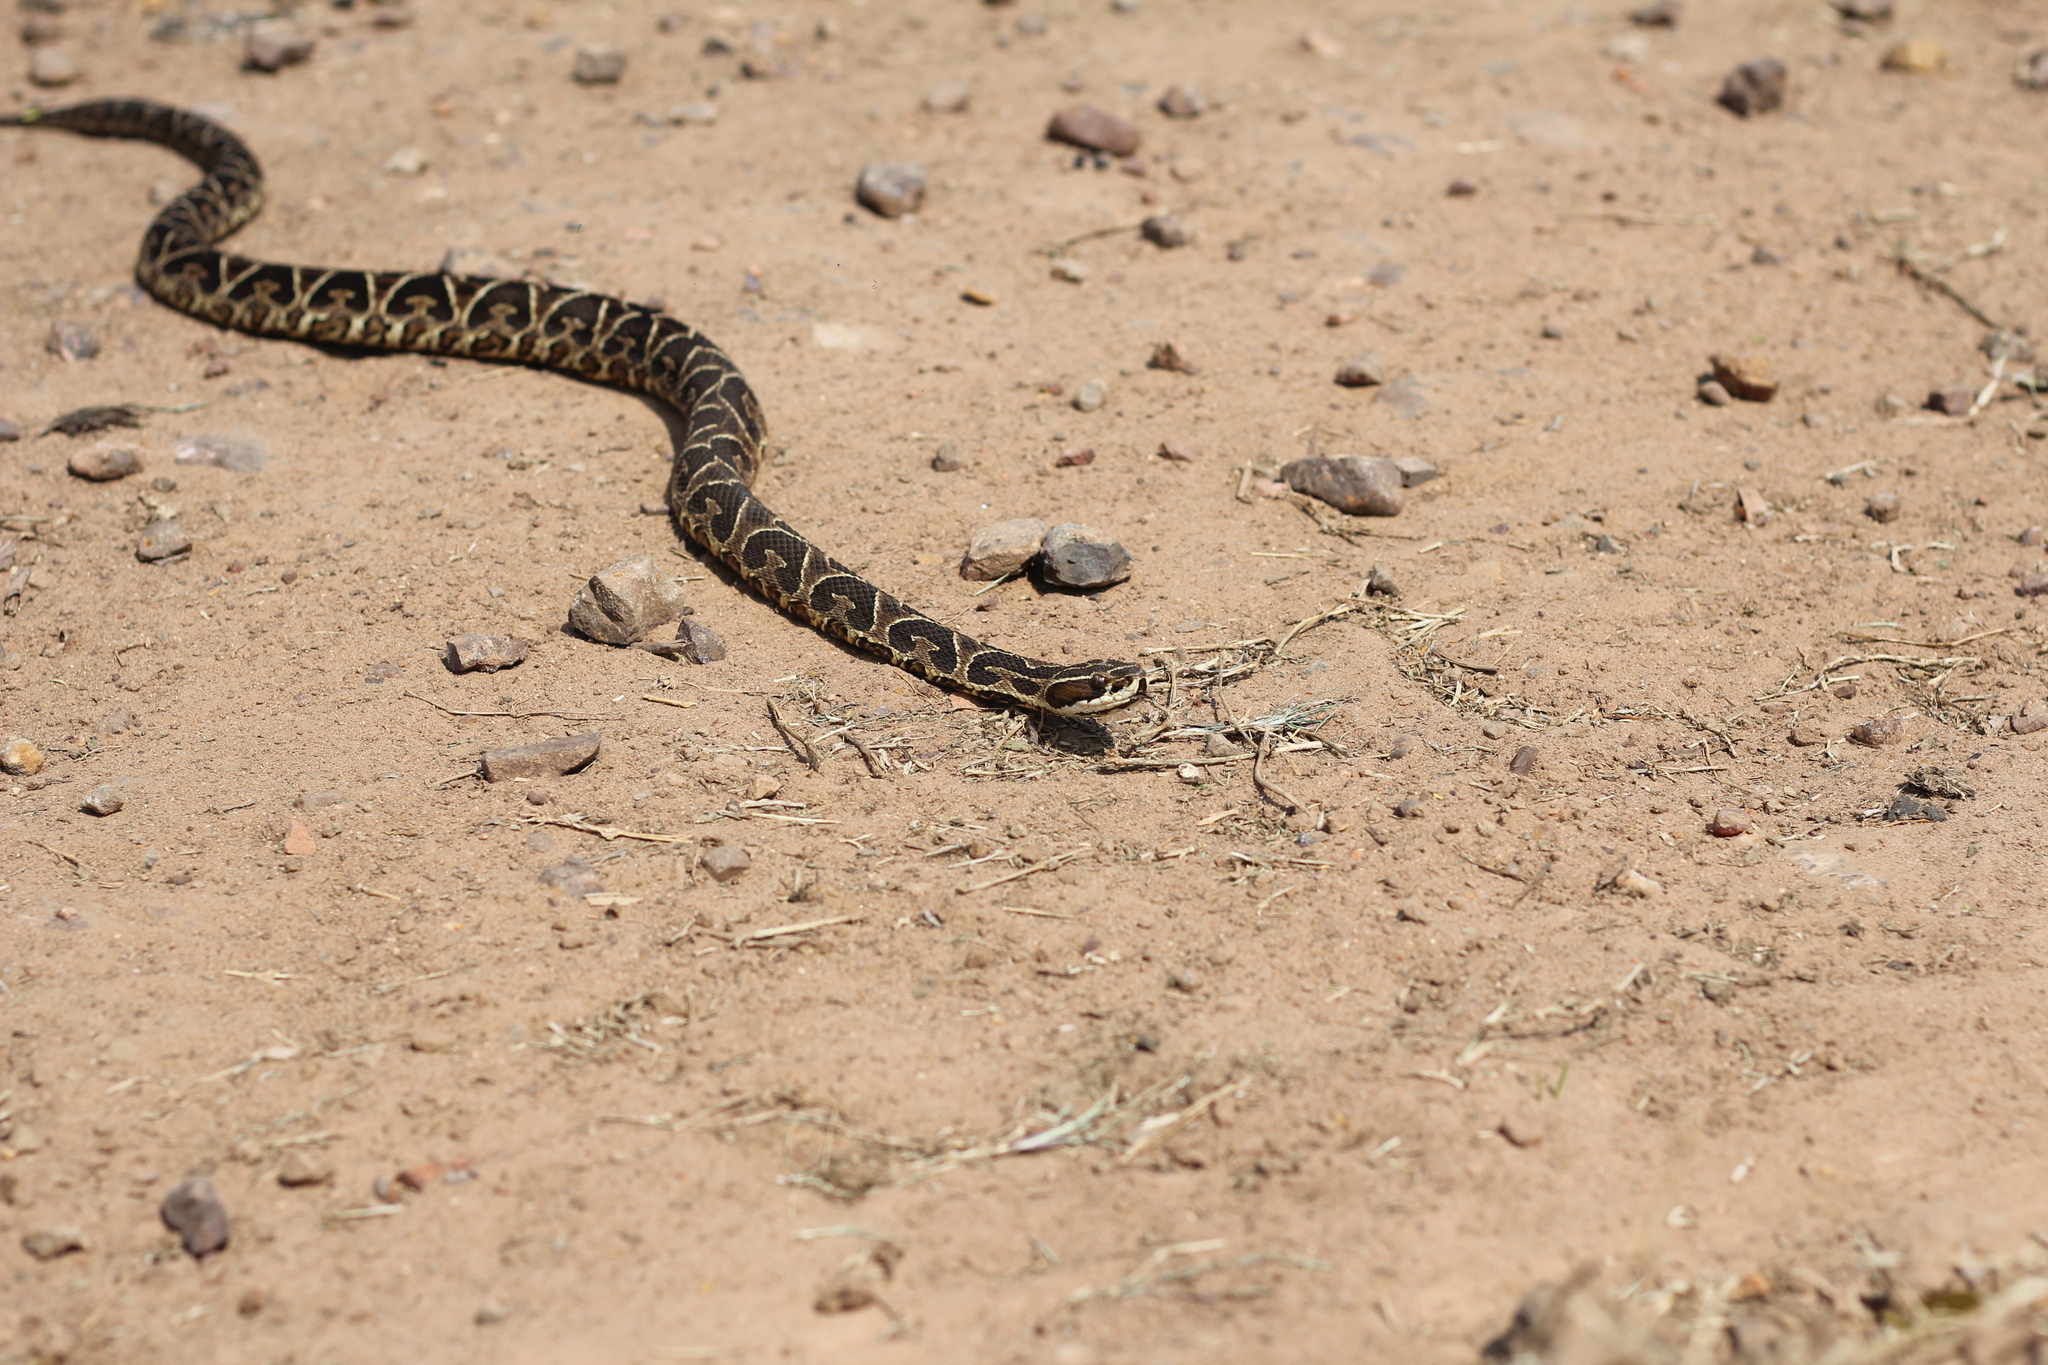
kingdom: Animalia
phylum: Chordata
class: Squamata
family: Viperidae
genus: Bothrops
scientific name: Bothrops alternatus
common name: Urutu
